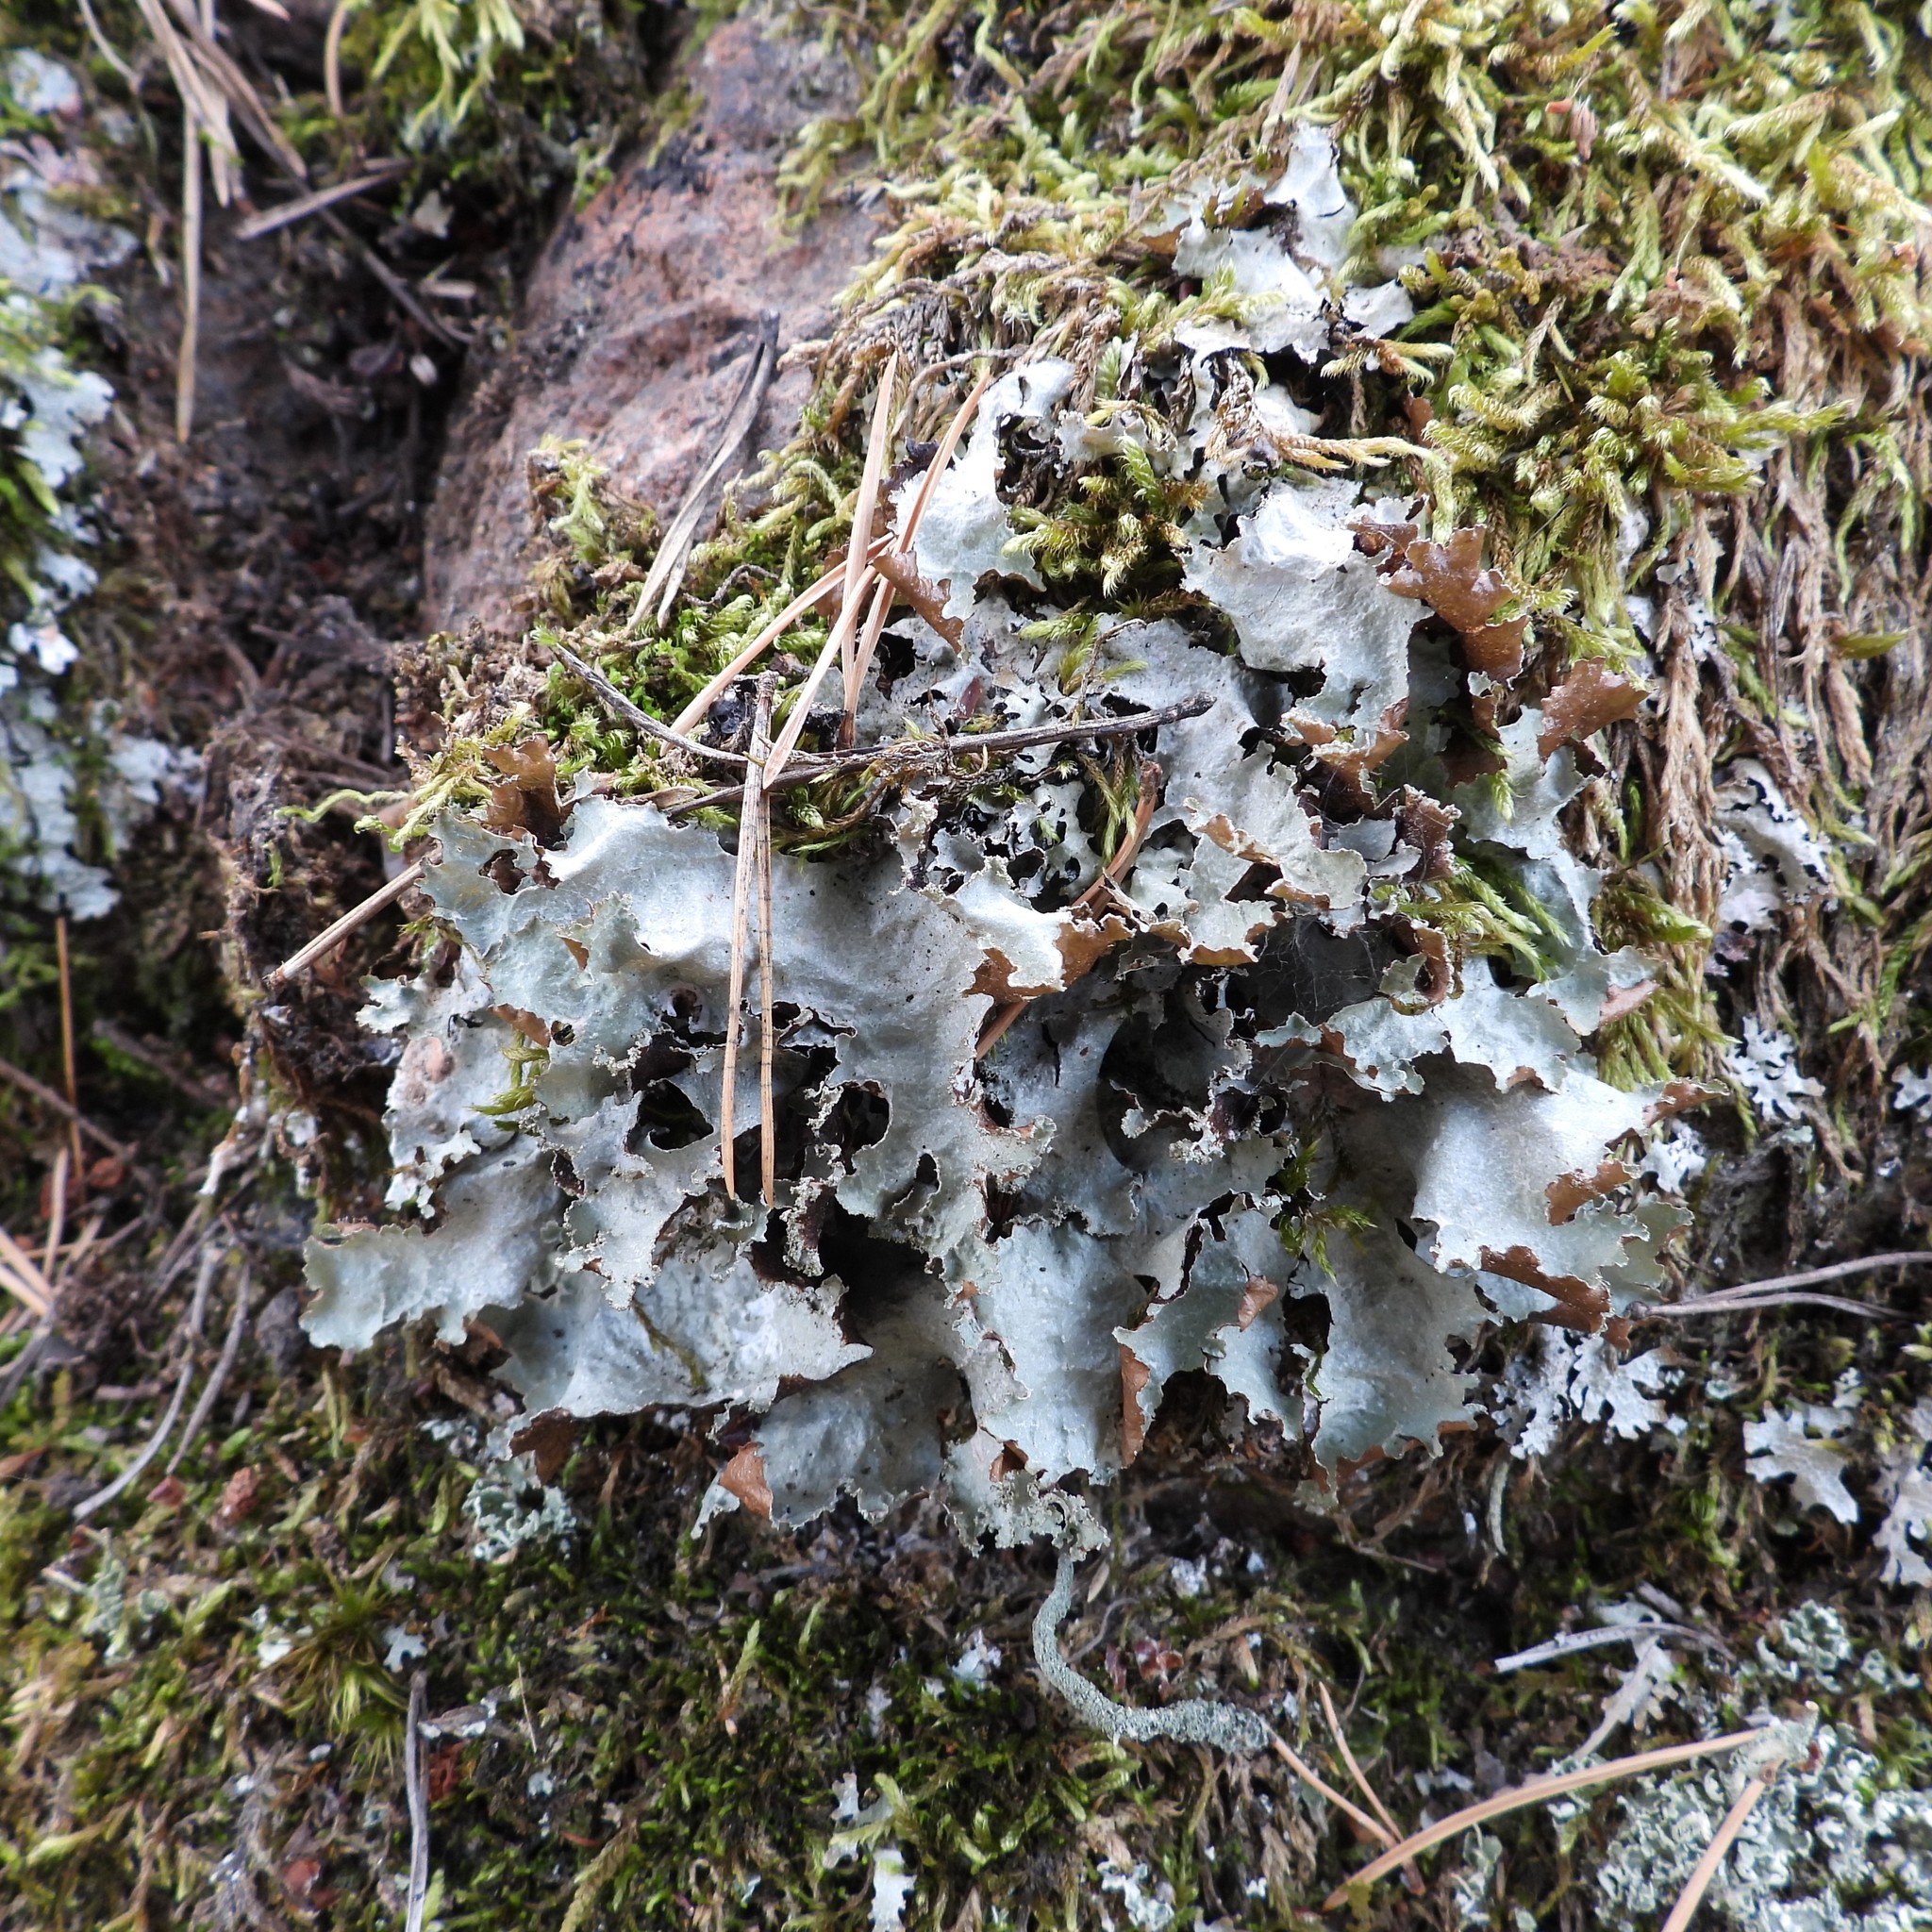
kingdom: Fungi
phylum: Ascomycota
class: Lecanoromycetes
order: Lecanorales
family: Parmeliaceae
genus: Platismatia
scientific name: Platismatia glauca
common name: Varied rag lichen
